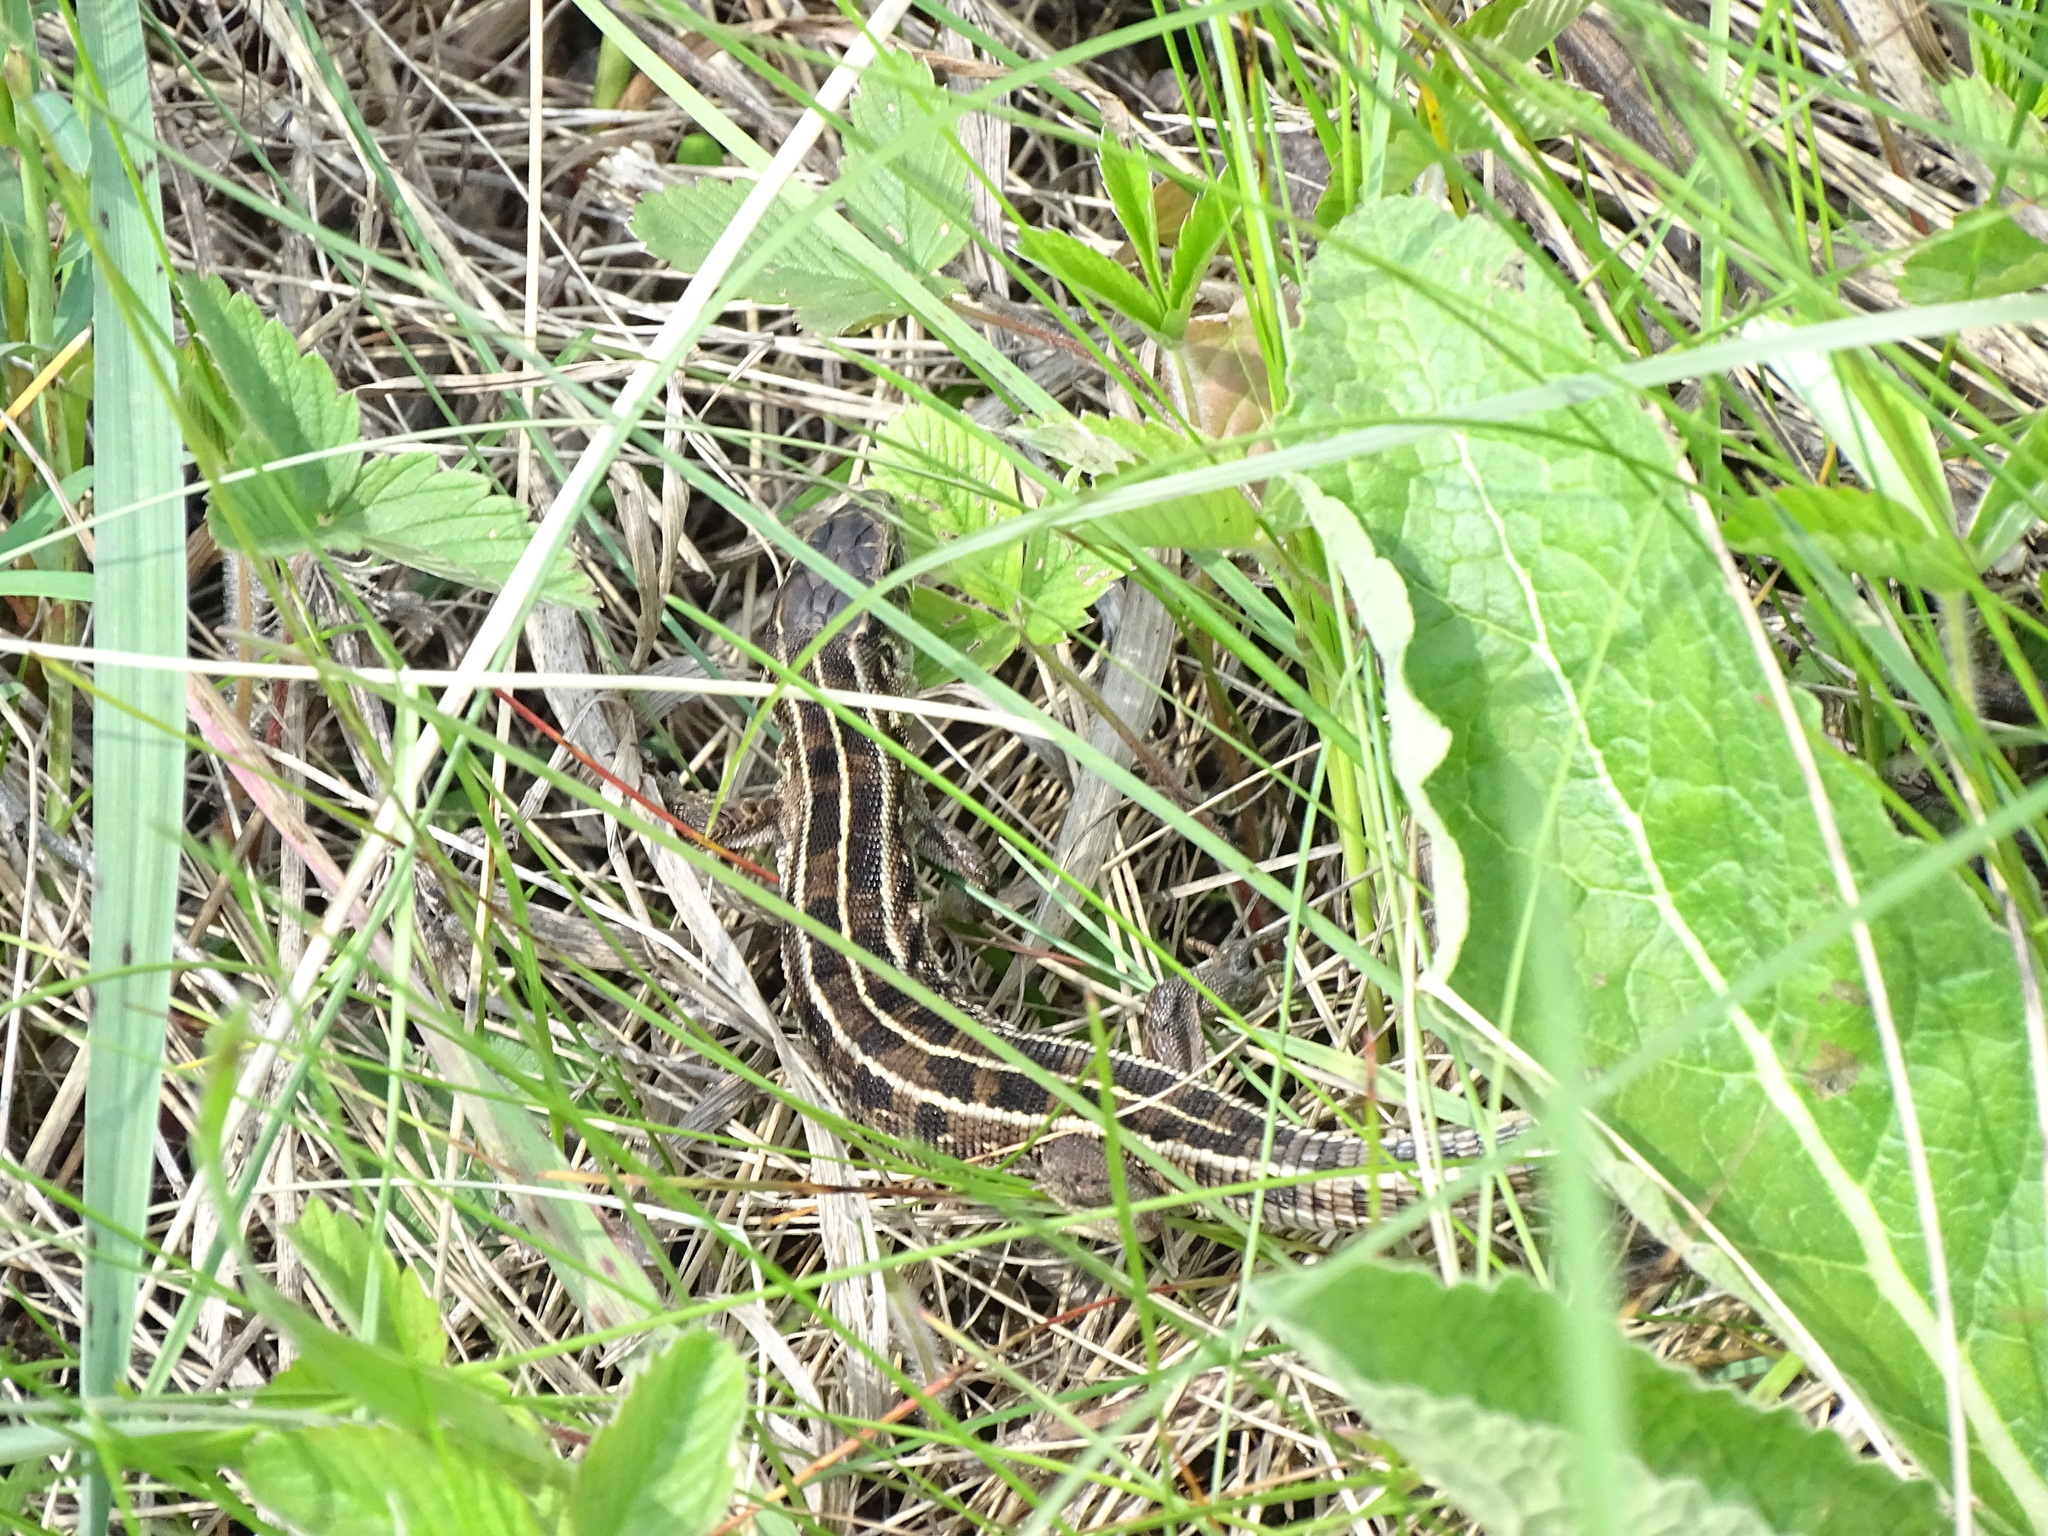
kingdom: Animalia
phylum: Chordata
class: Squamata
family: Lacertidae
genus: Lacerta
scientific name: Lacerta agilis
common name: Sand lizard
